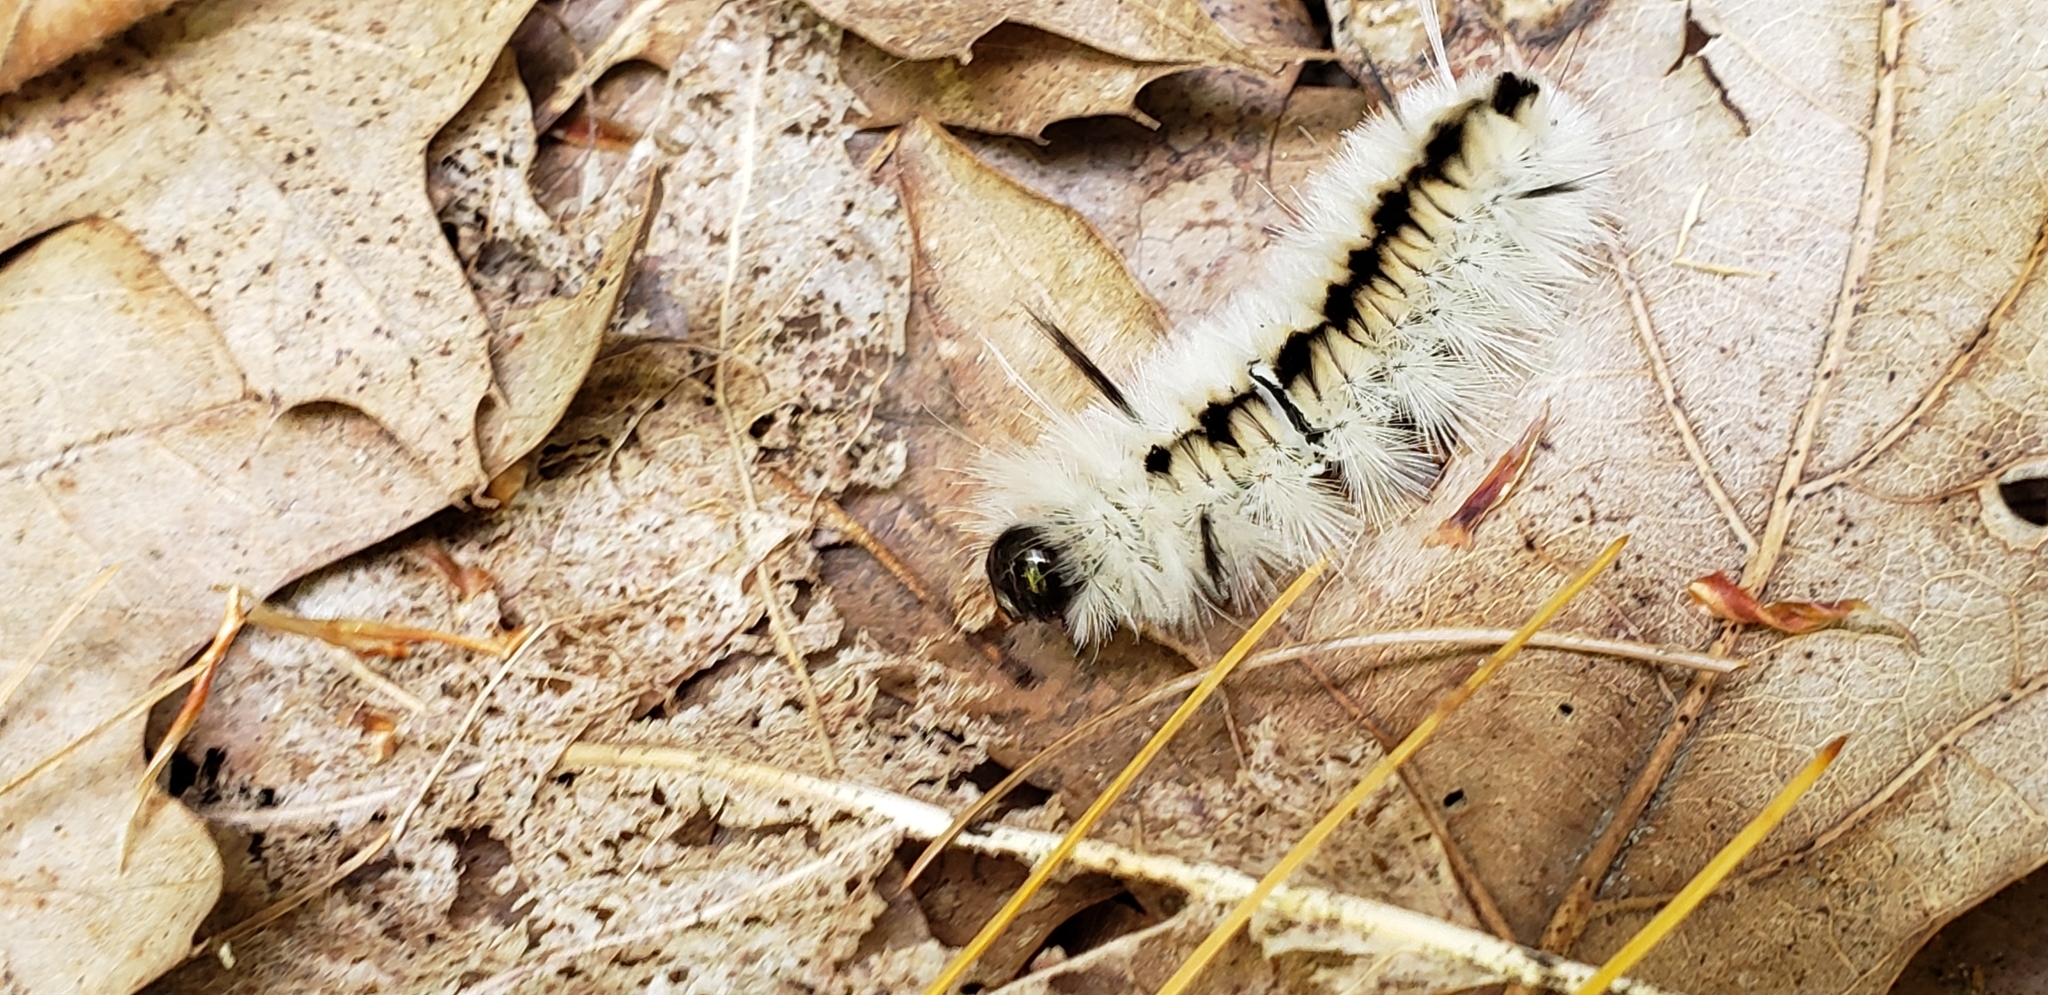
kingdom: Animalia
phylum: Arthropoda
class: Insecta
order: Lepidoptera
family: Erebidae
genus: Lophocampa
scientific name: Lophocampa caryae
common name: Hickory tussock moth
